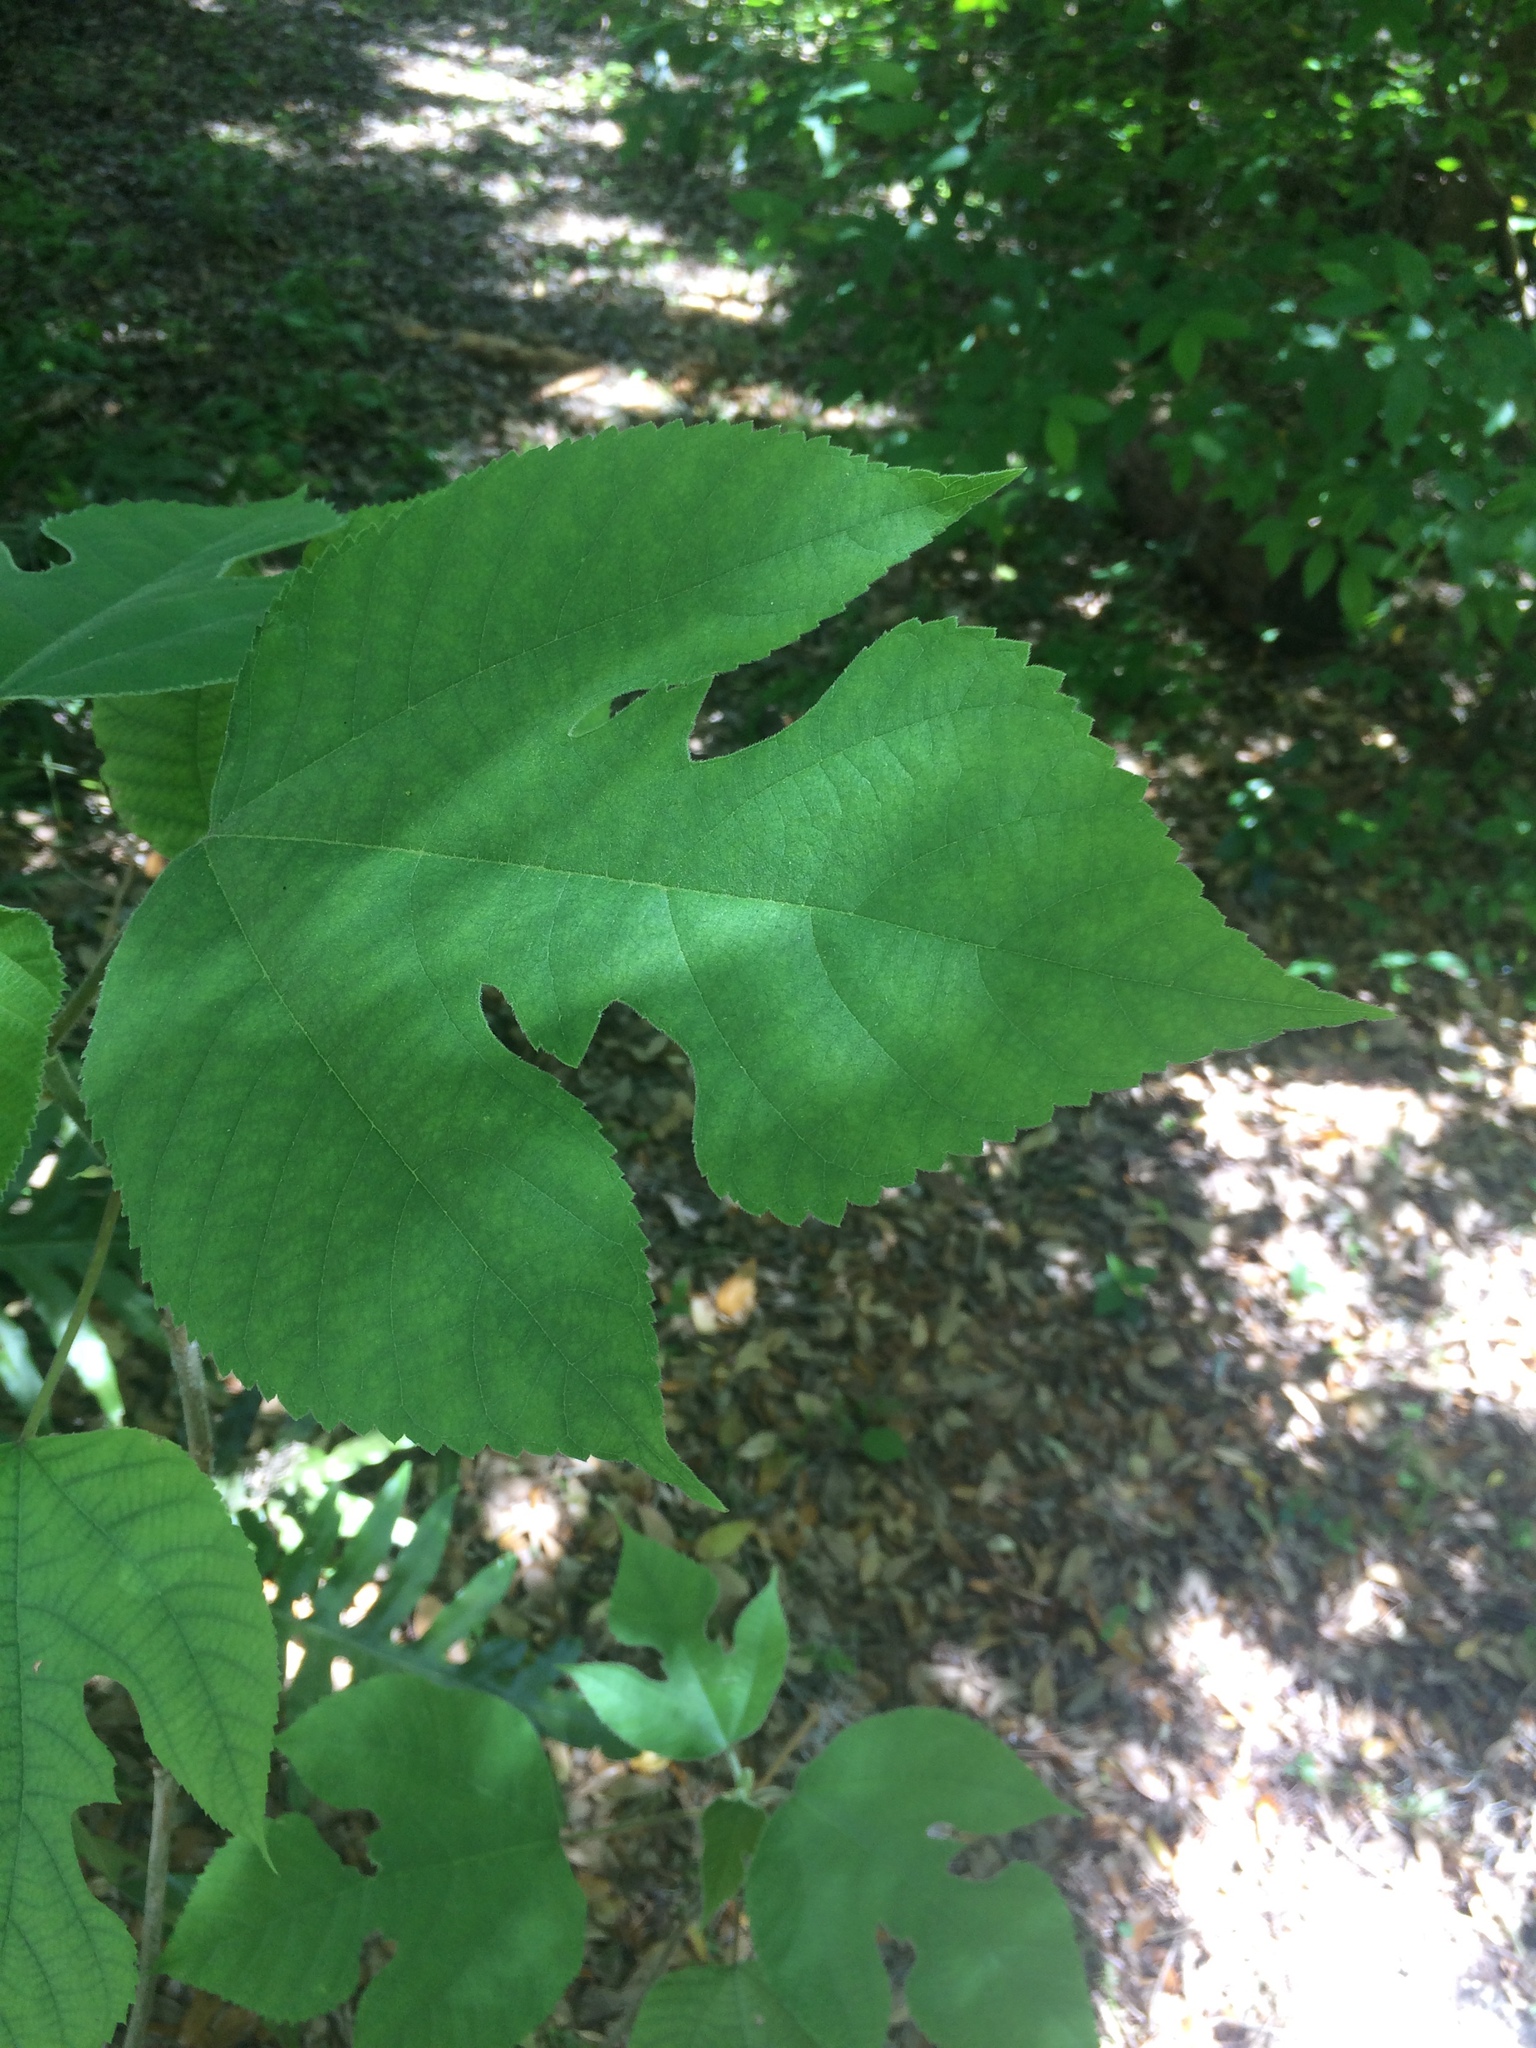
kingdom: Plantae
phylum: Tracheophyta
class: Magnoliopsida
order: Rosales
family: Moraceae
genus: Broussonetia
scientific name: Broussonetia papyrifera
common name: Paper mulberry
